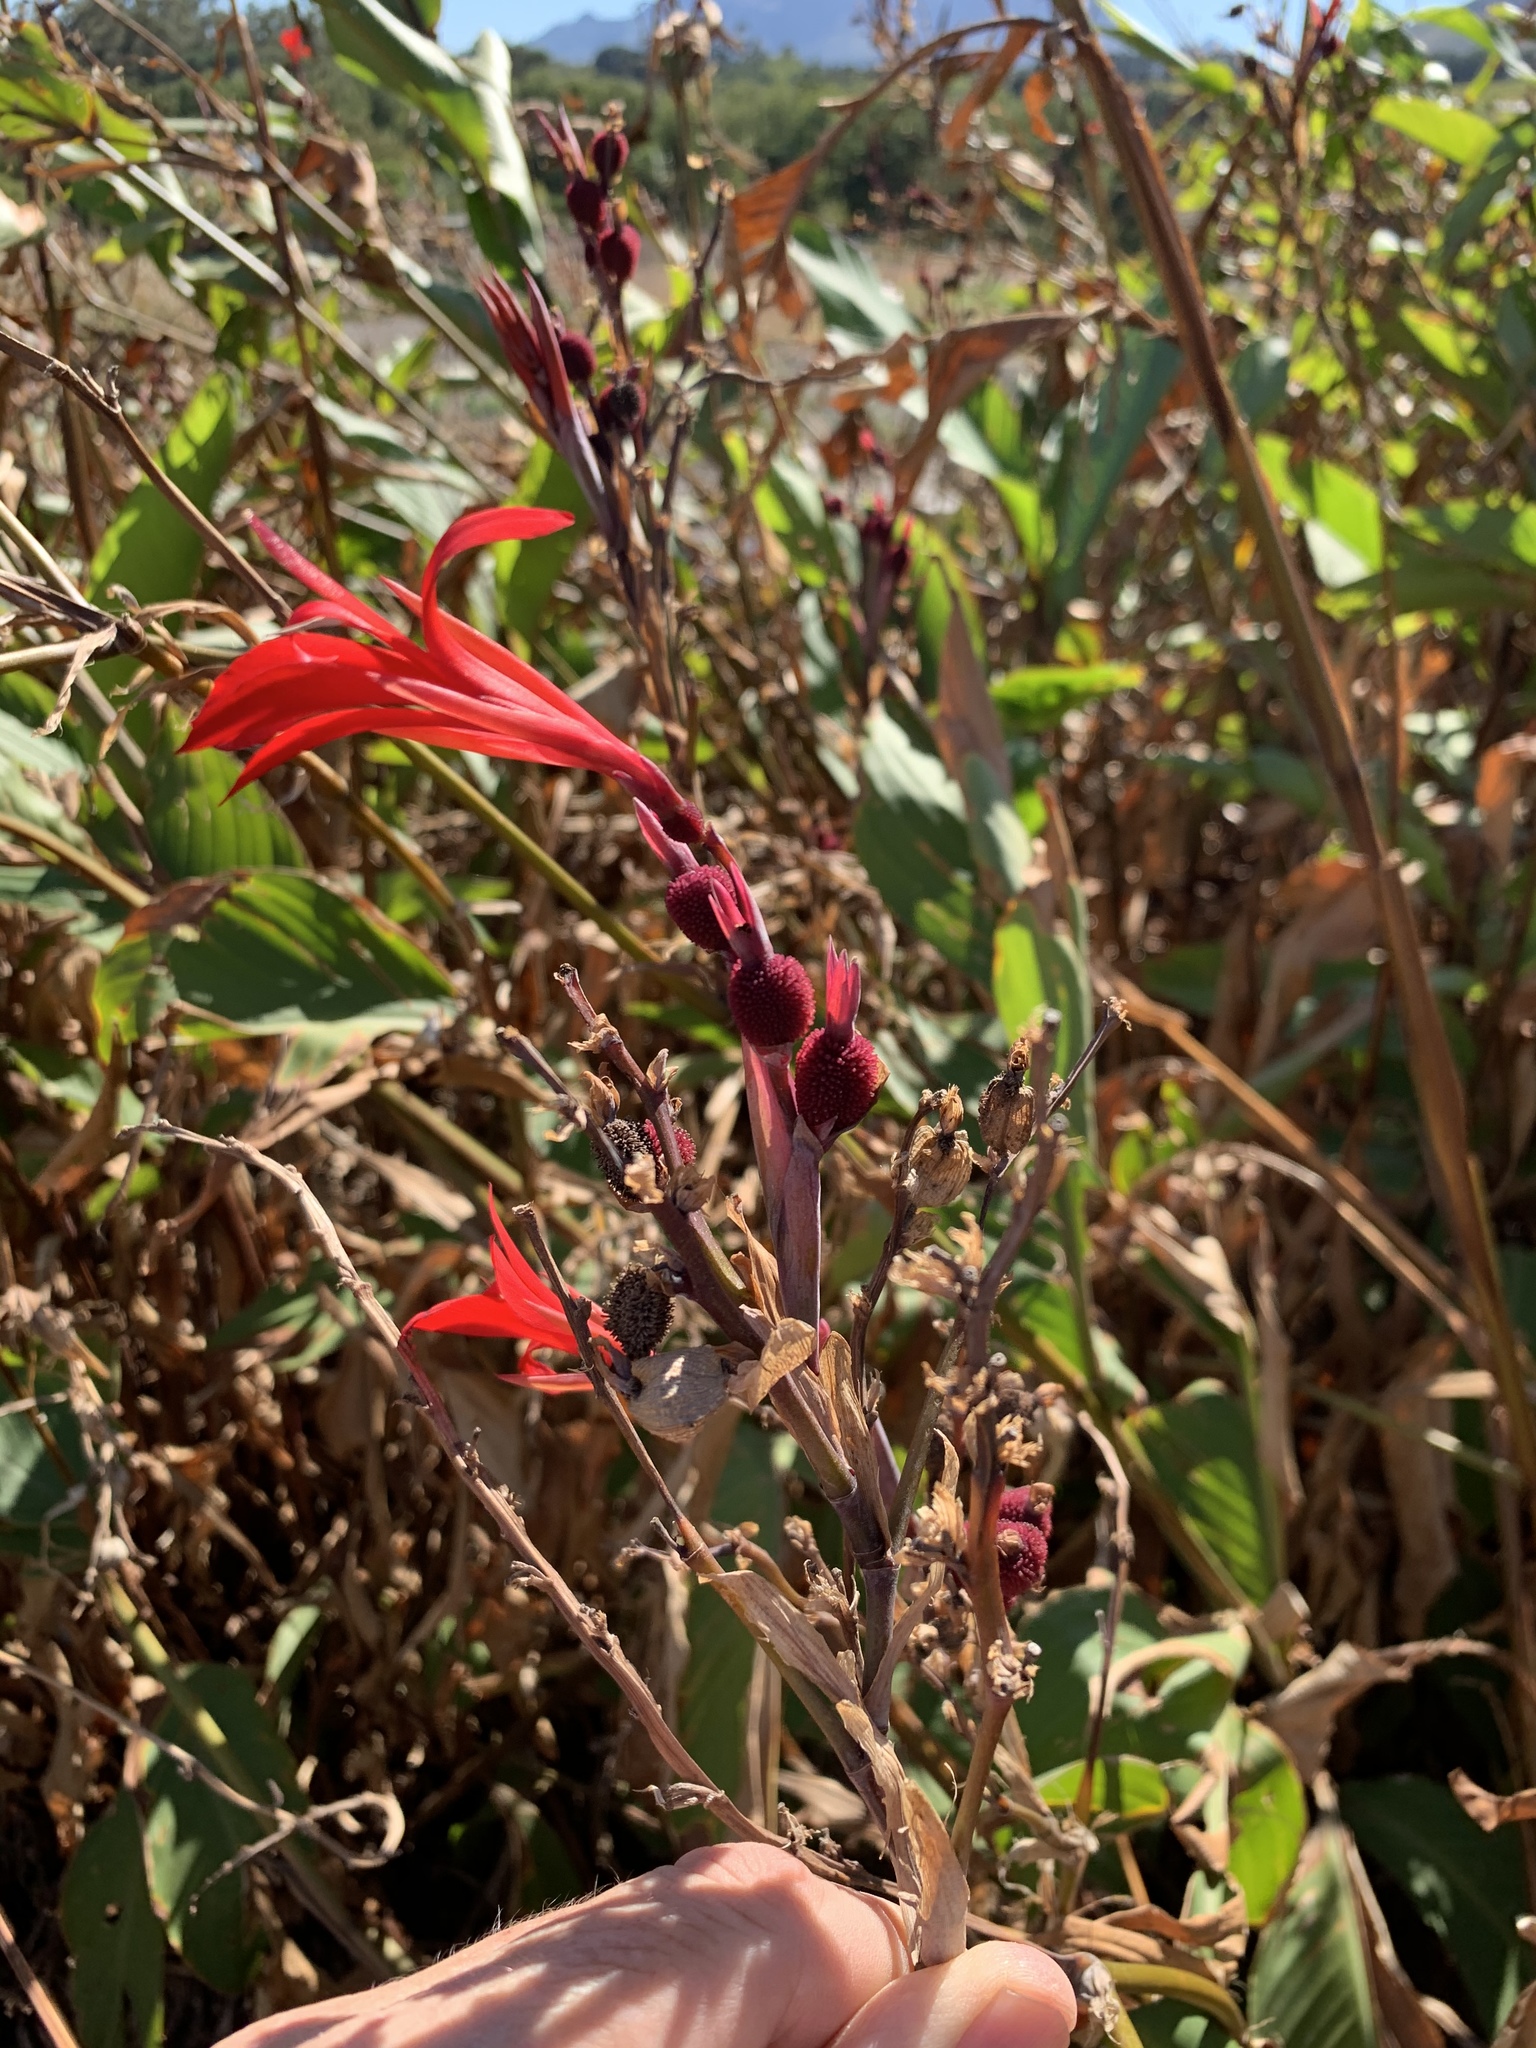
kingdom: Plantae
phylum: Tracheophyta
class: Liliopsida
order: Zingiberales
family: Cannaceae
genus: Canna
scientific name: Canna indica
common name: Indian shot
